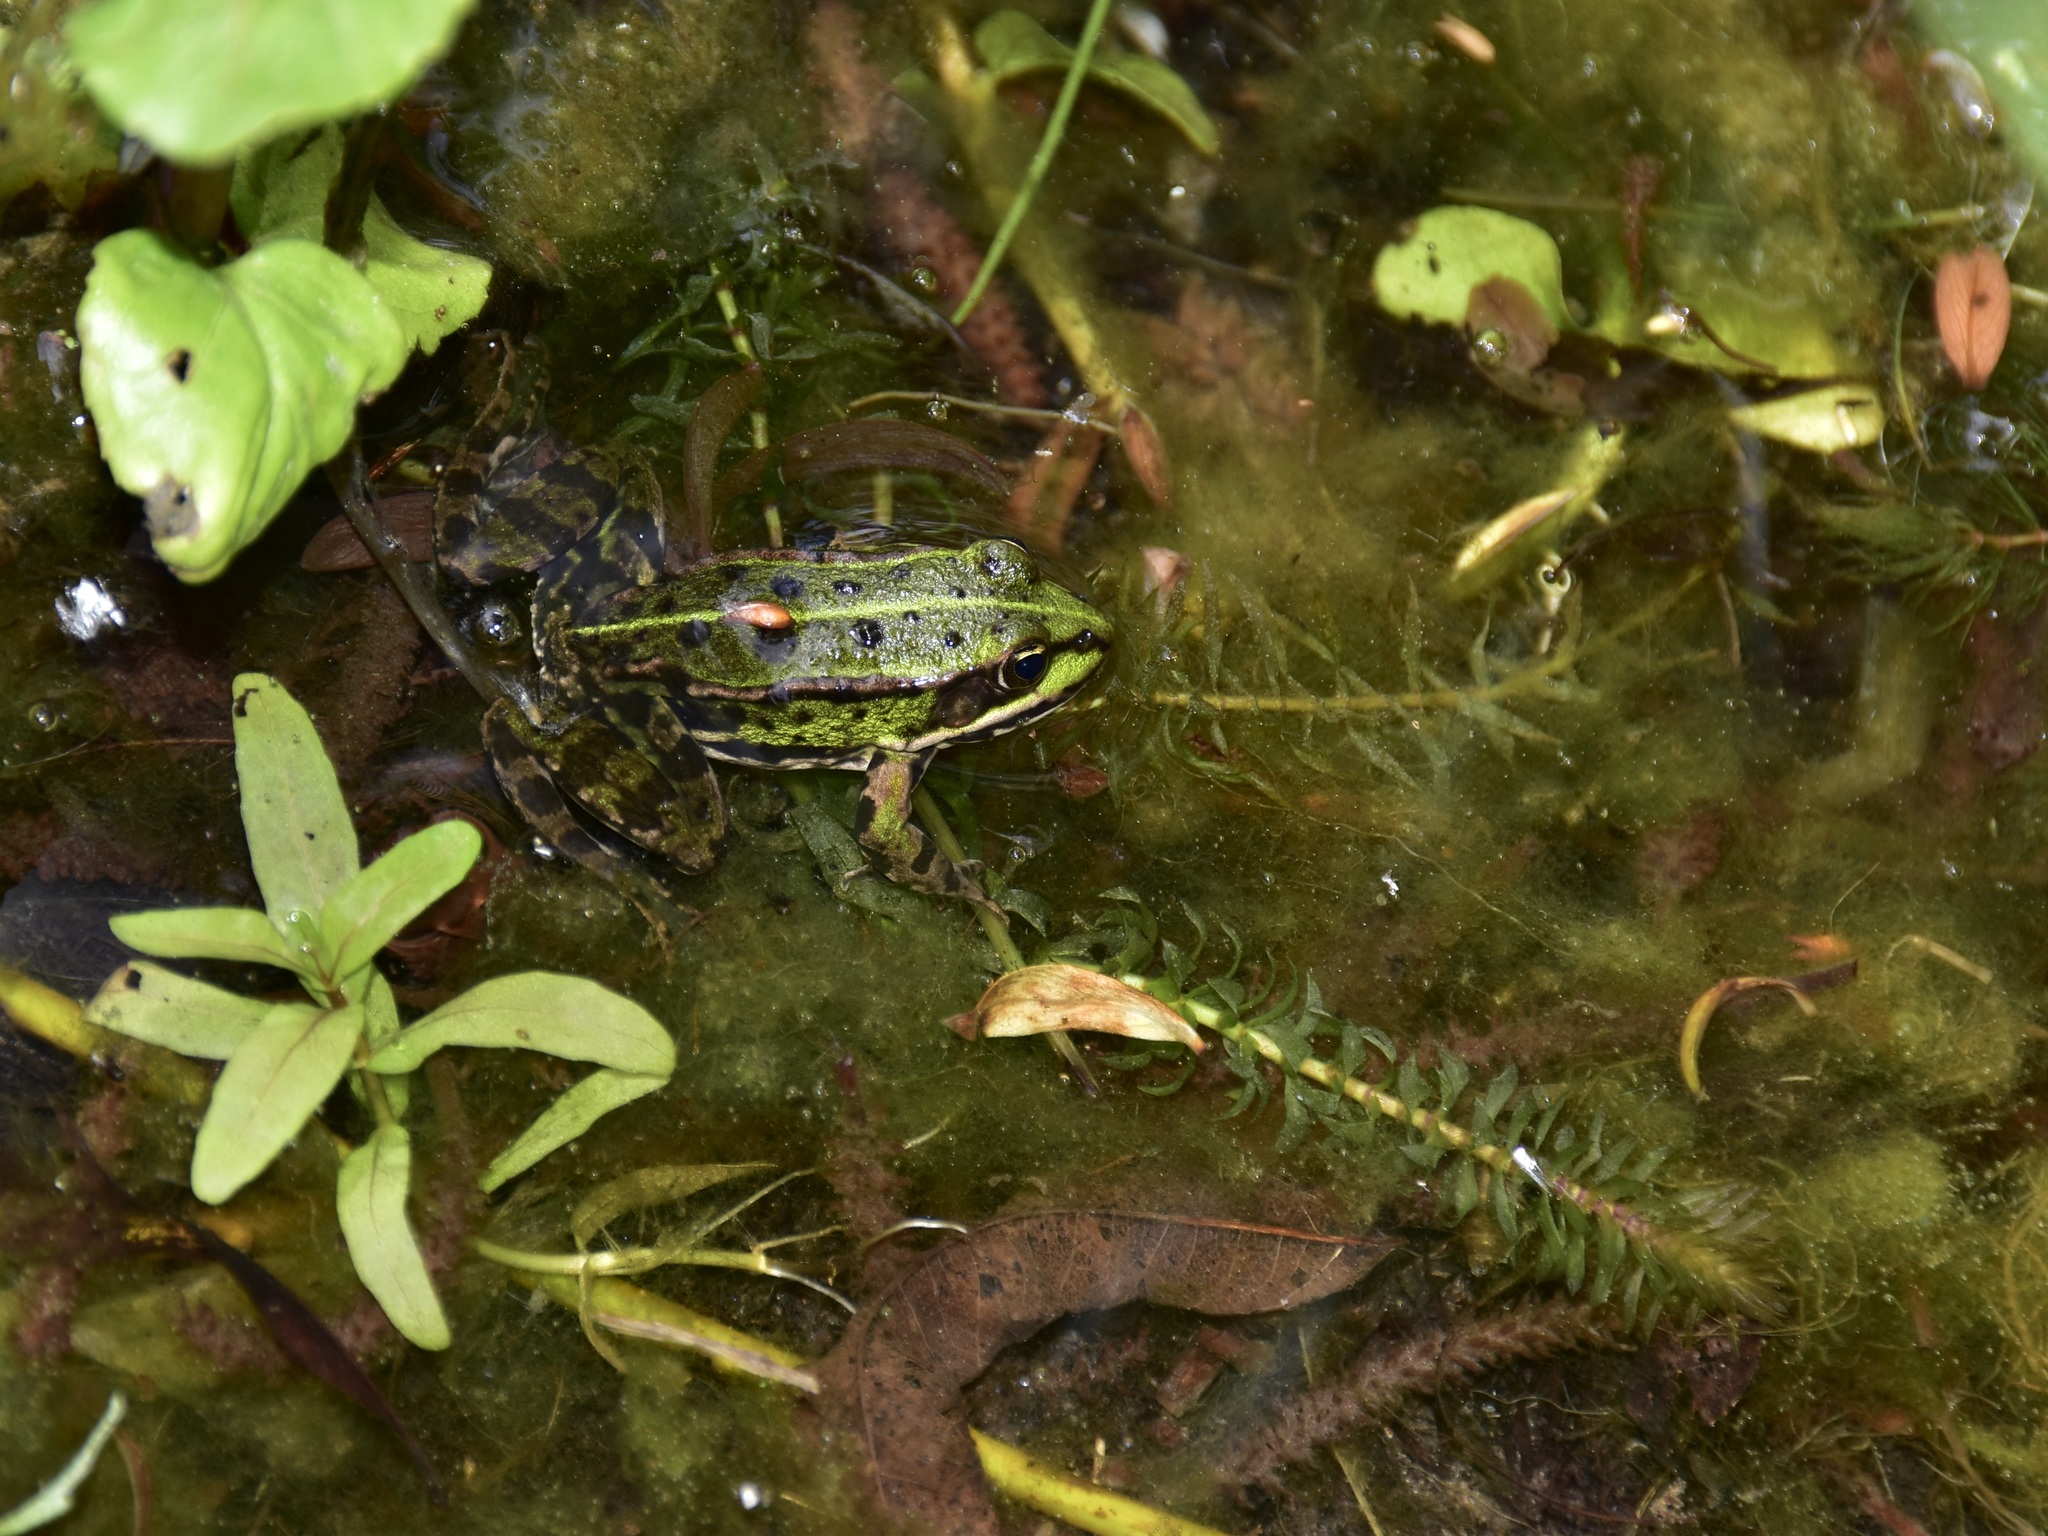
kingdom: Animalia
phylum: Chordata
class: Amphibia
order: Anura
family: Ranidae
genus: Pelophylax
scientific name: Pelophylax
